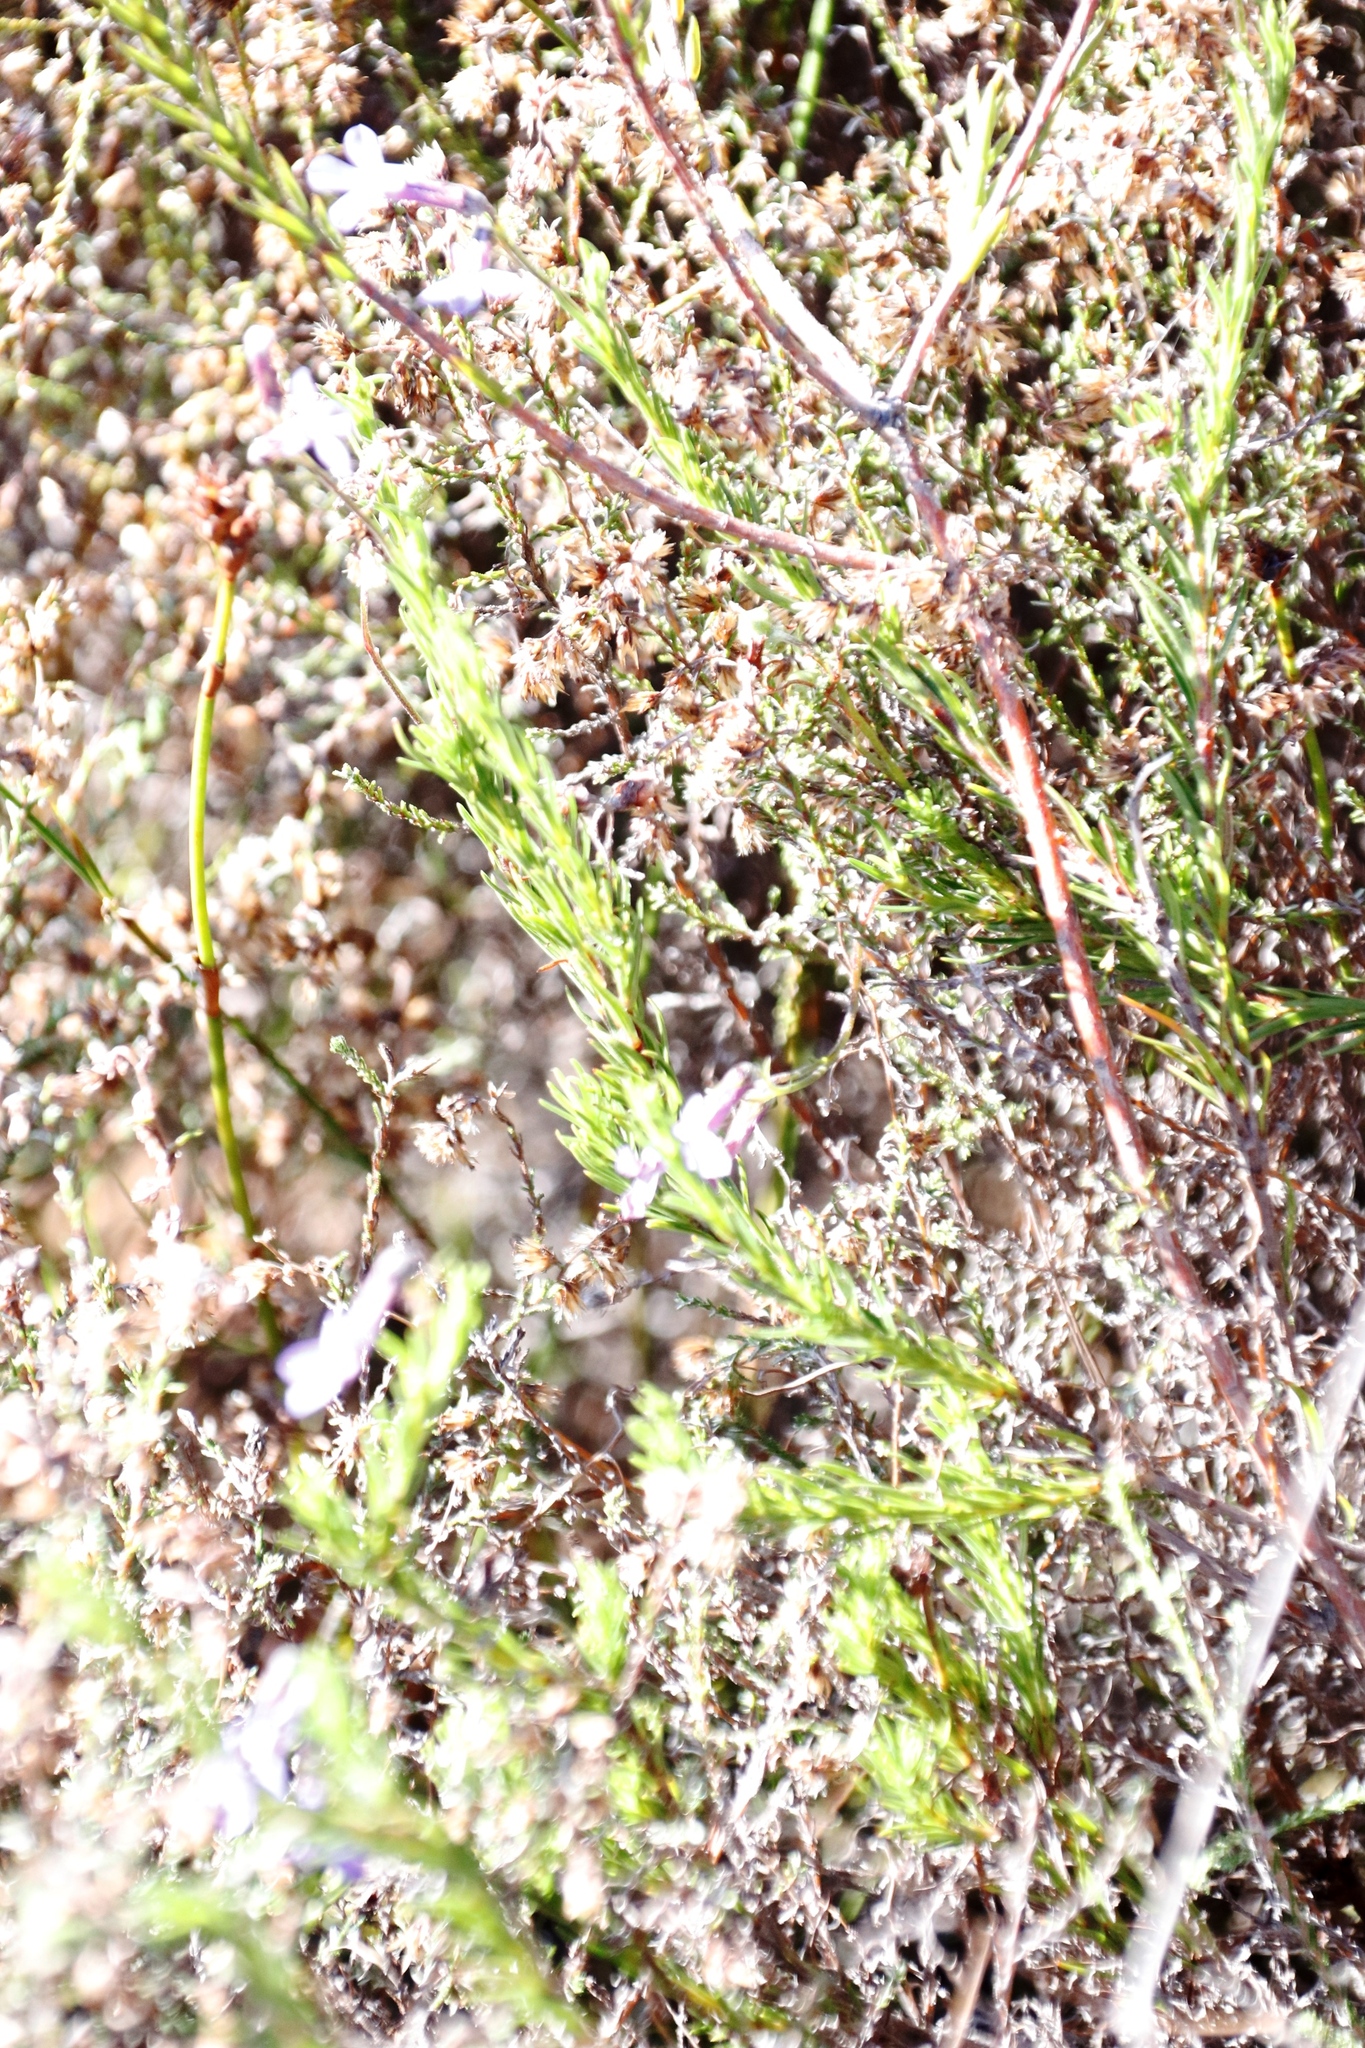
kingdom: Plantae
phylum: Tracheophyta
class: Magnoliopsida
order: Asterales
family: Campanulaceae
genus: Lobelia
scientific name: Lobelia pinifolia
